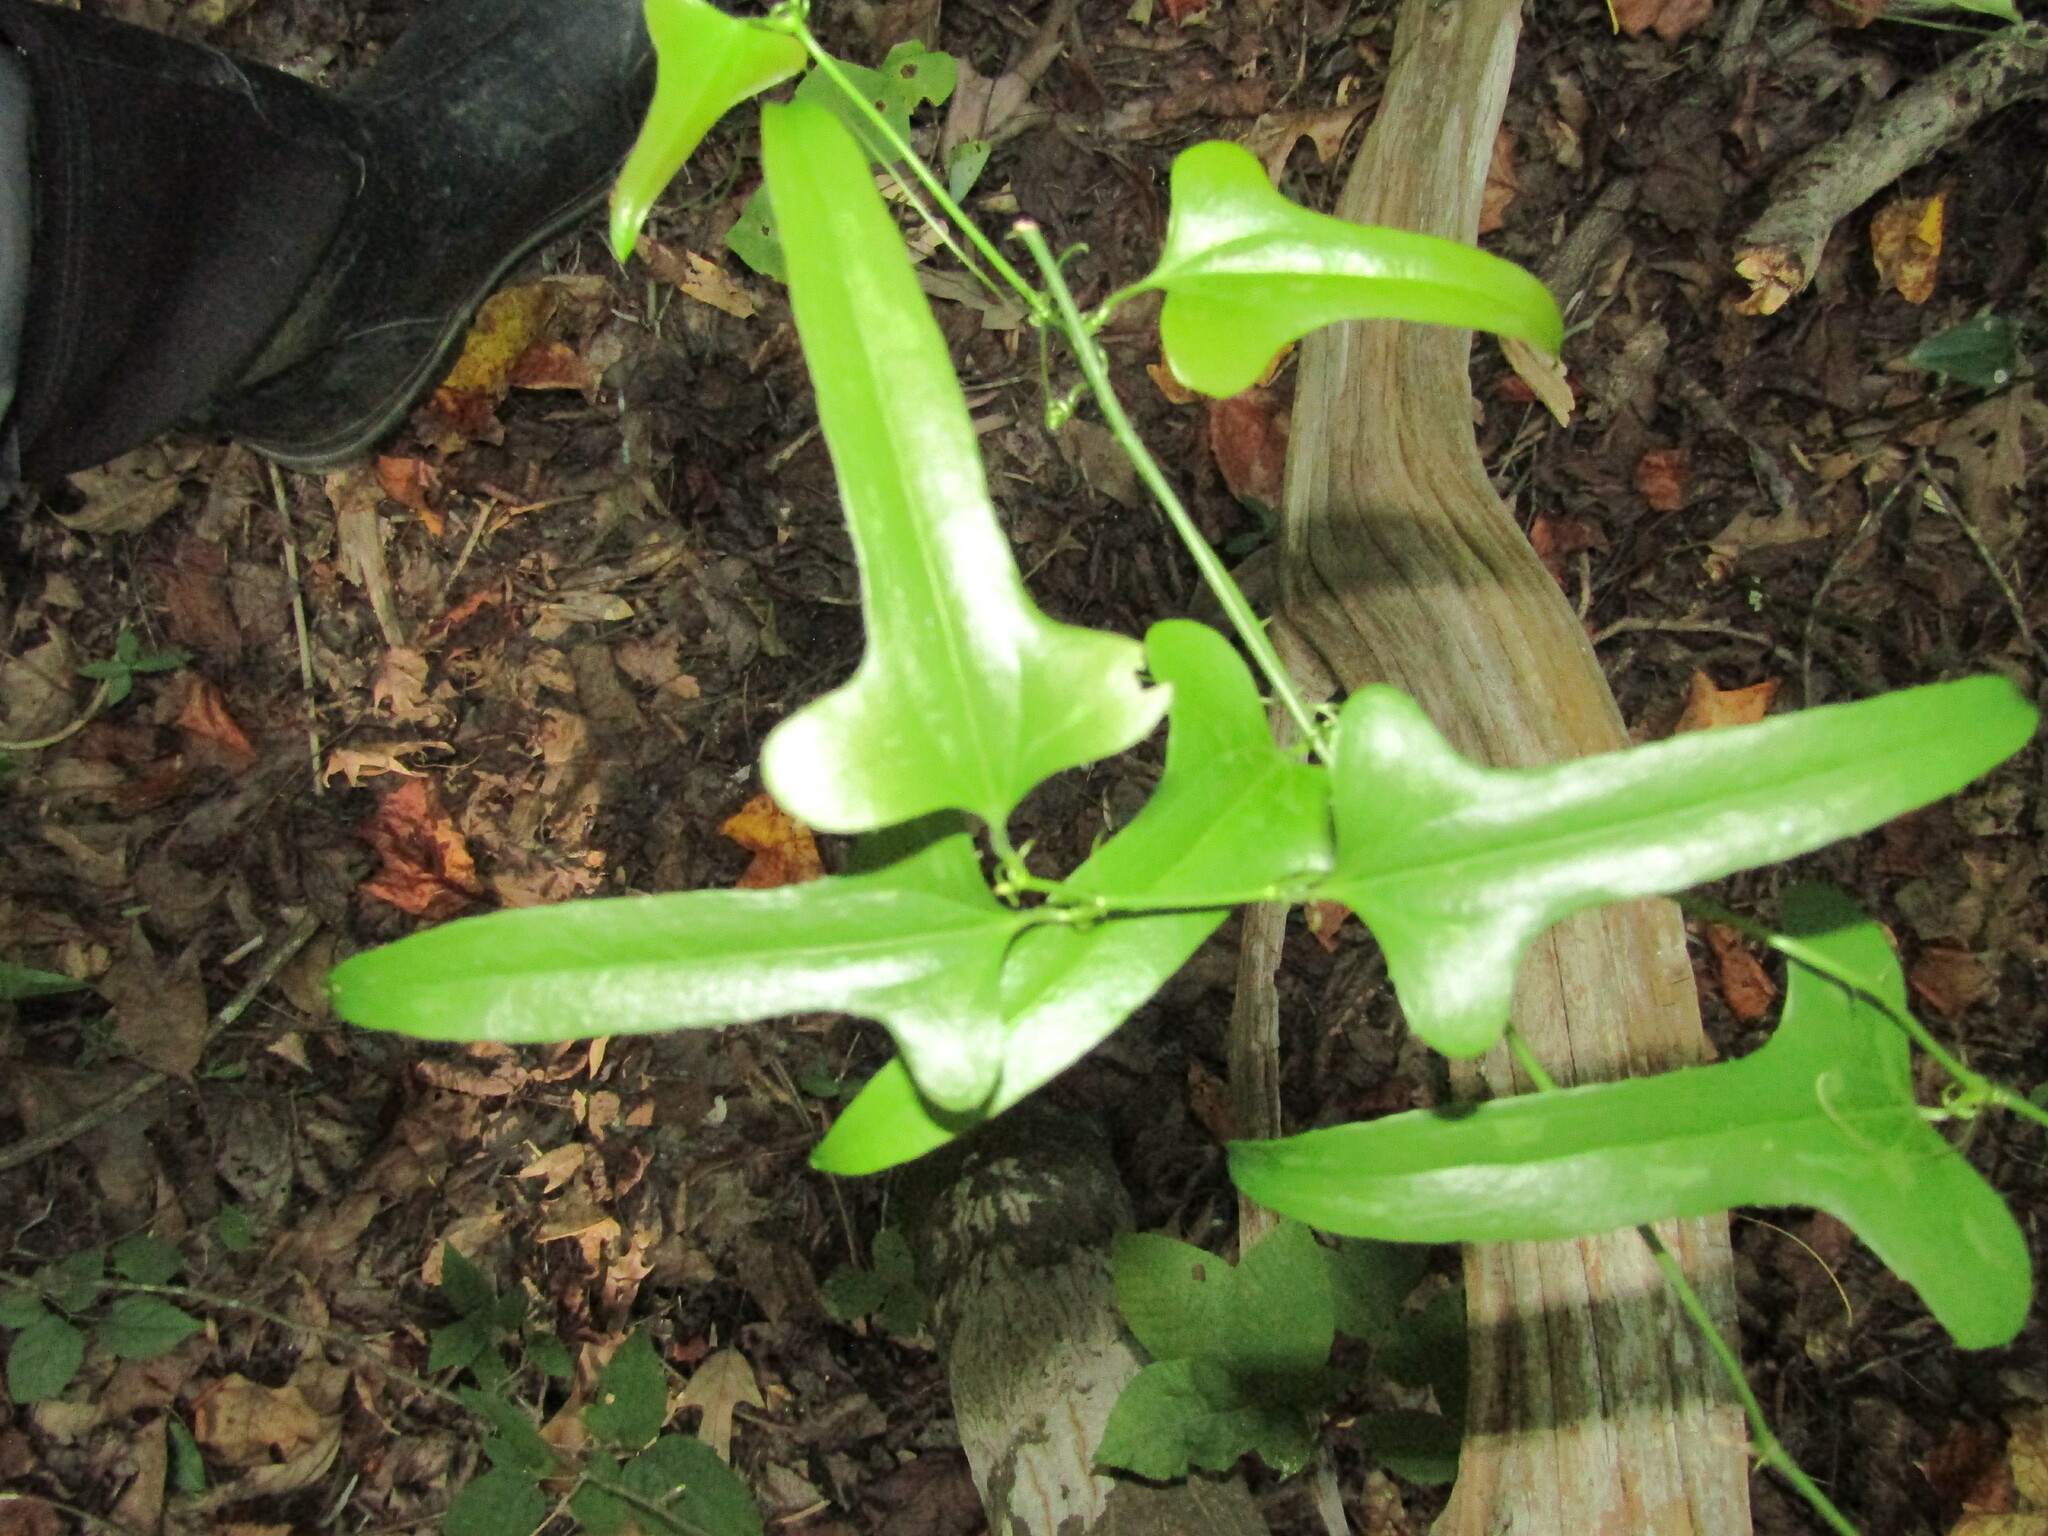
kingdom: Plantae
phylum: Tracheophyta
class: Liliopsida
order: Liliales
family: Smilacaceae
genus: Smilax
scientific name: Smilax bona-nox
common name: Catbrier
